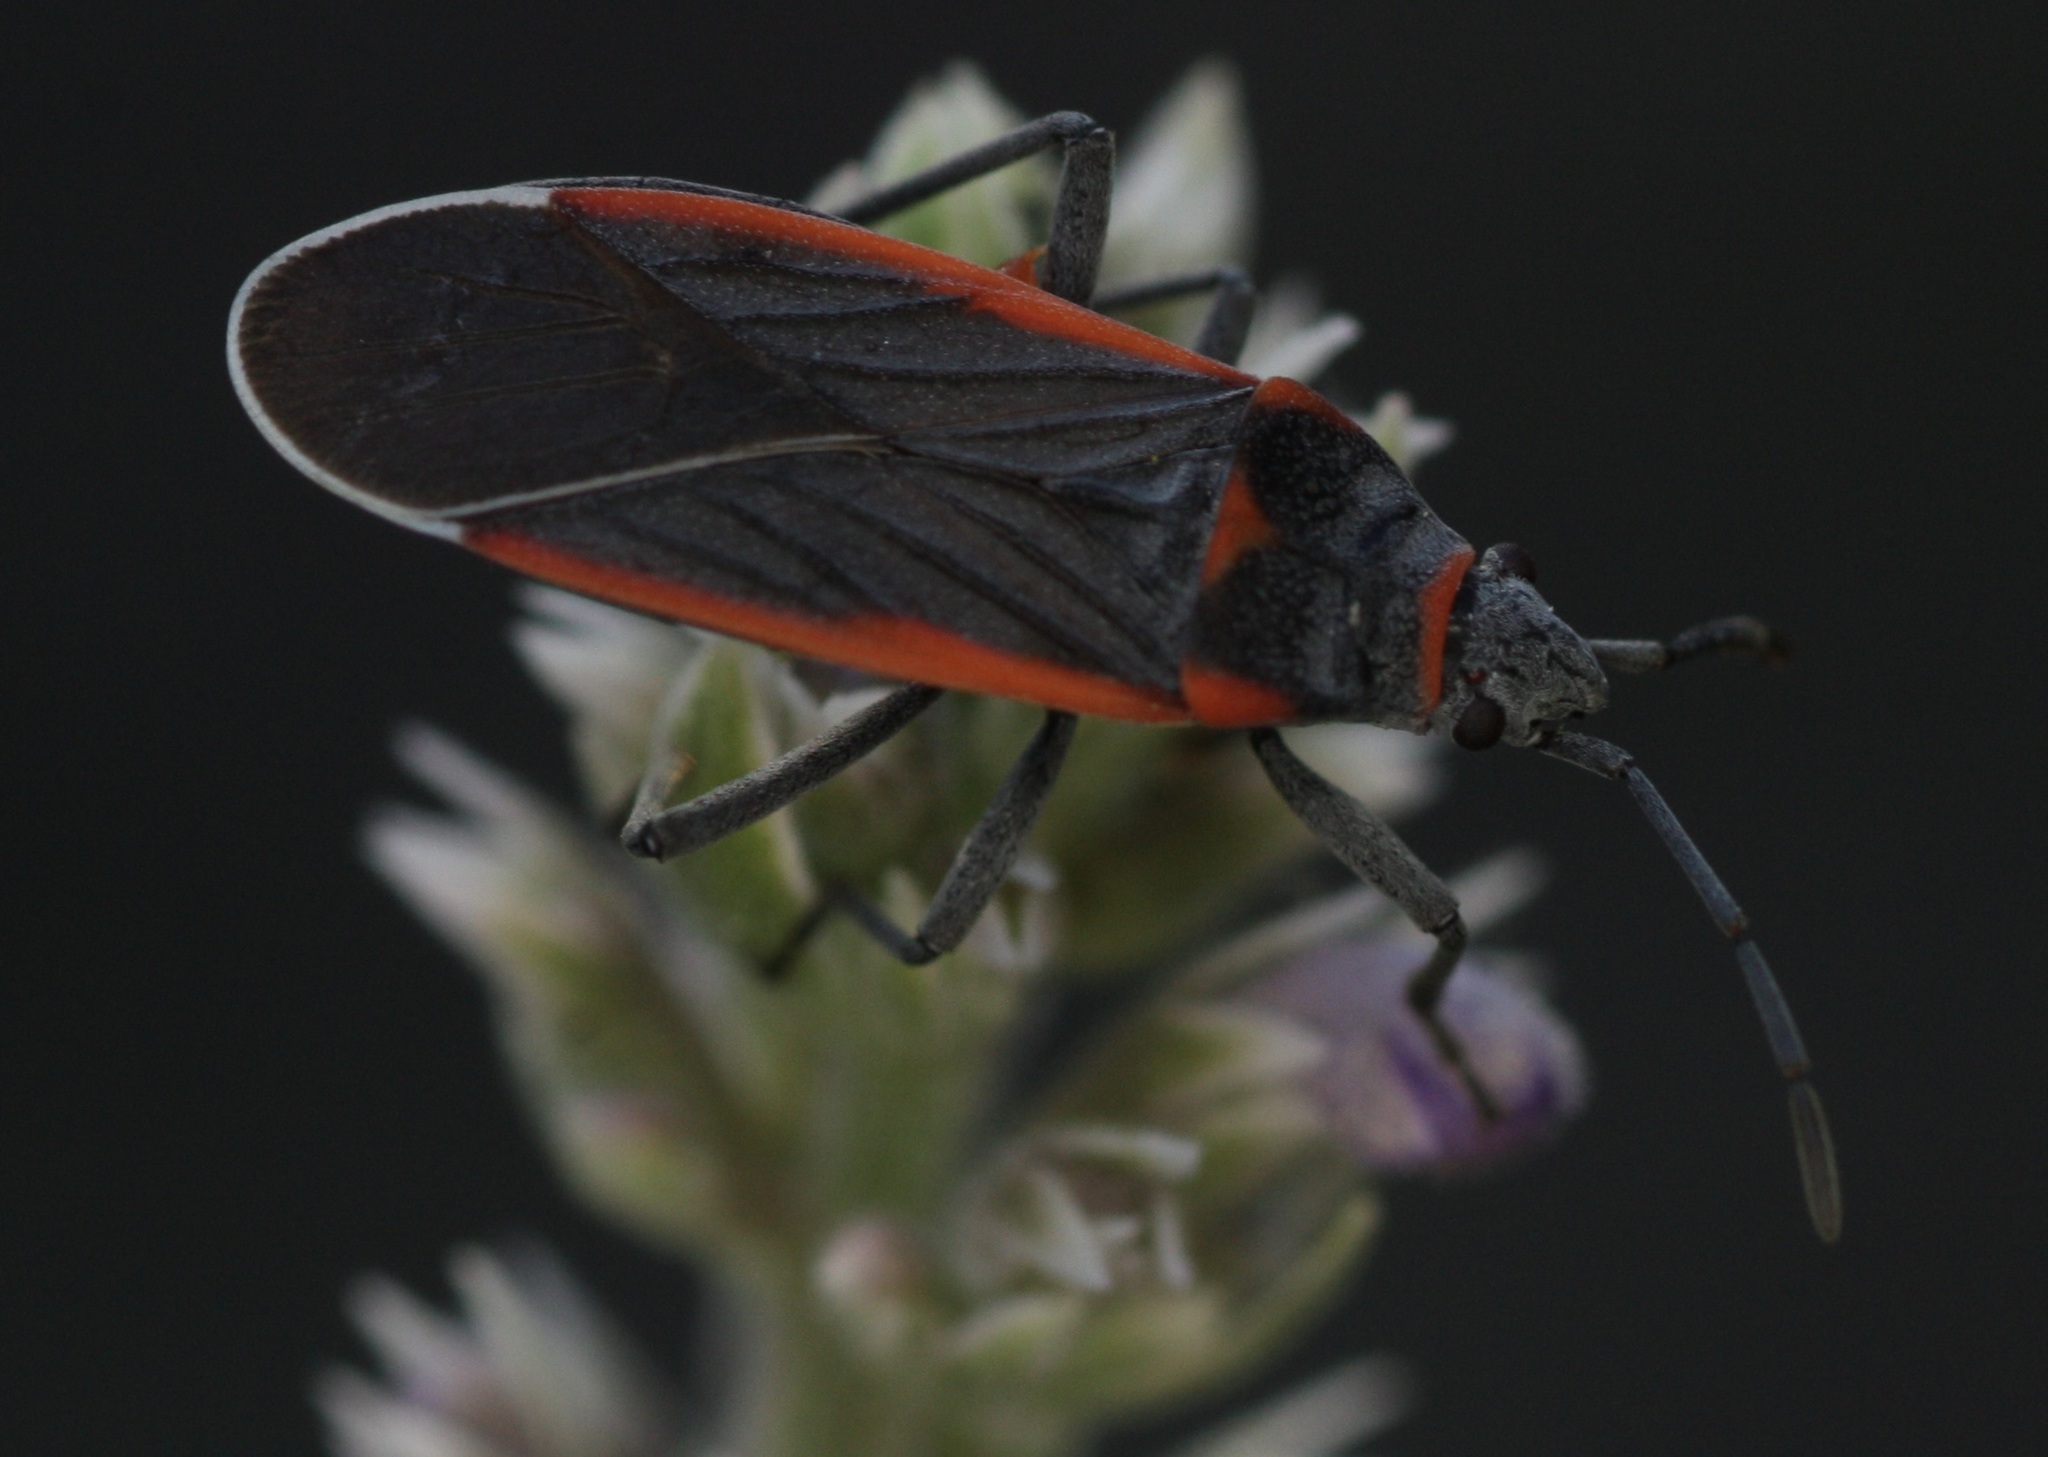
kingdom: Animalia
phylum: Arthropoda
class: Insecta
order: Hemiptera
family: Lygaeidae
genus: Melacoryphus
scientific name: Melacoryphus lateralis
